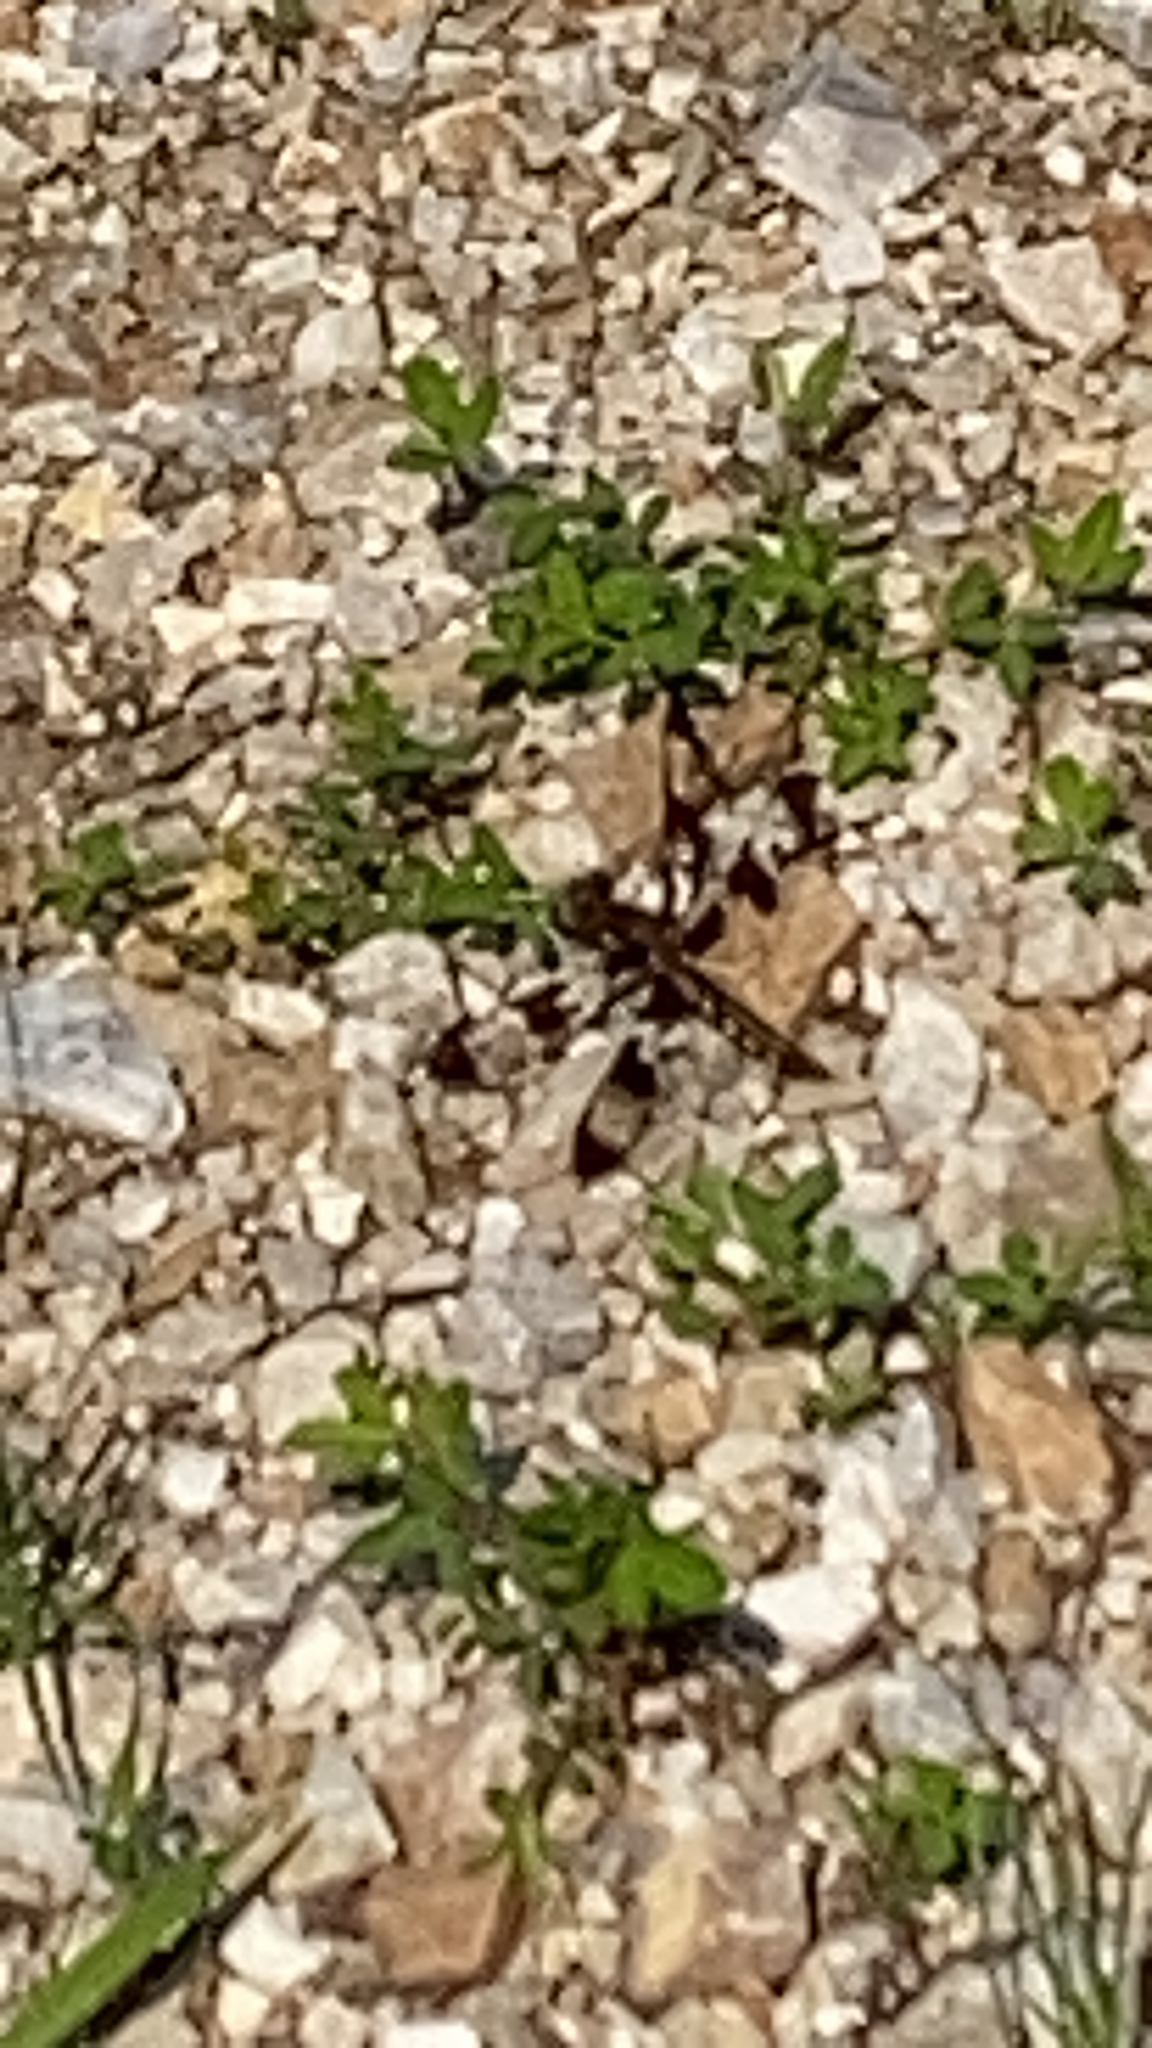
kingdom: Animalia
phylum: Arthropoda
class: Insecta
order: Odonata
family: Libellulidae
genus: Plathemis
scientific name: Plathemis lydia
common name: Common whitetail
